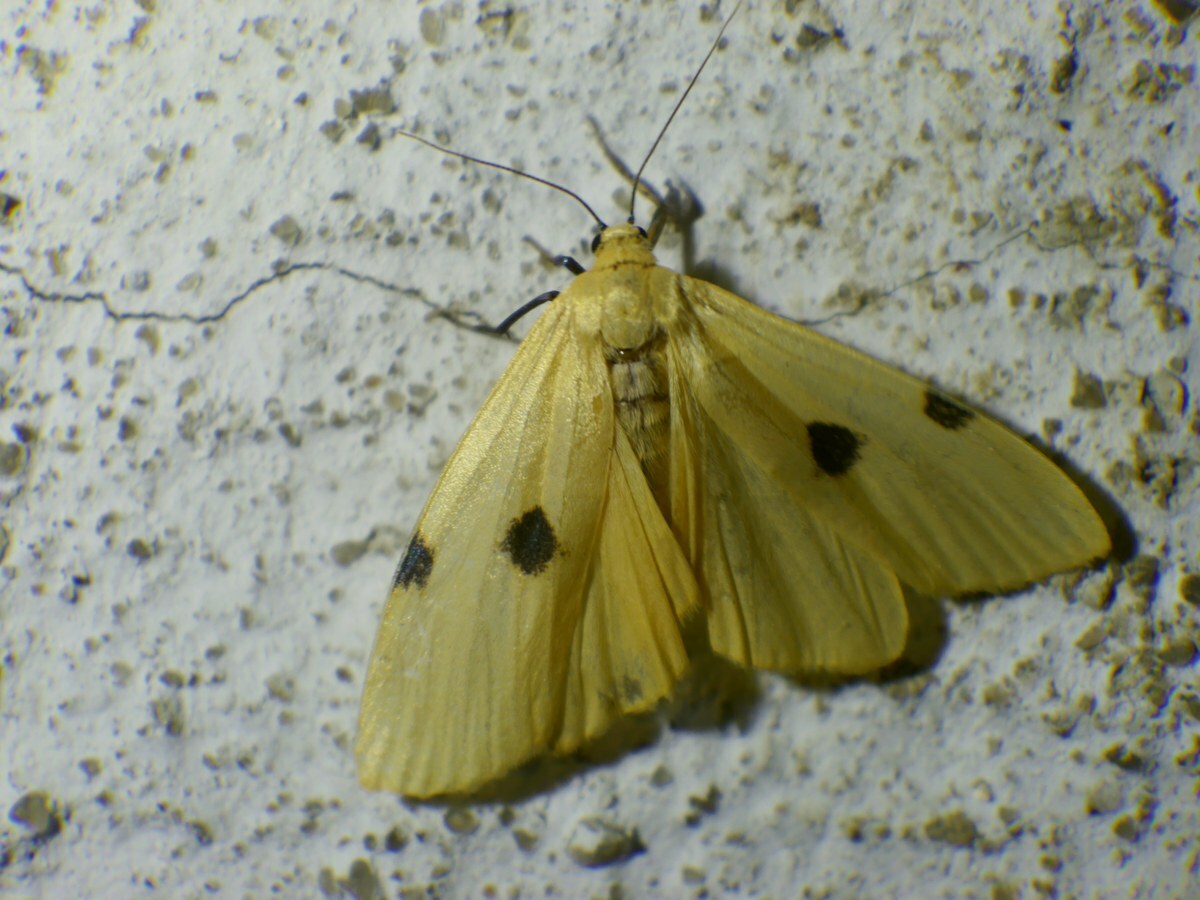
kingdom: Animalia
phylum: Arthropoda
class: Insecta
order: Lepidoptera
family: Erebidae
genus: Lithosia
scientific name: Lithosia quadra
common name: Four-spotted footman
